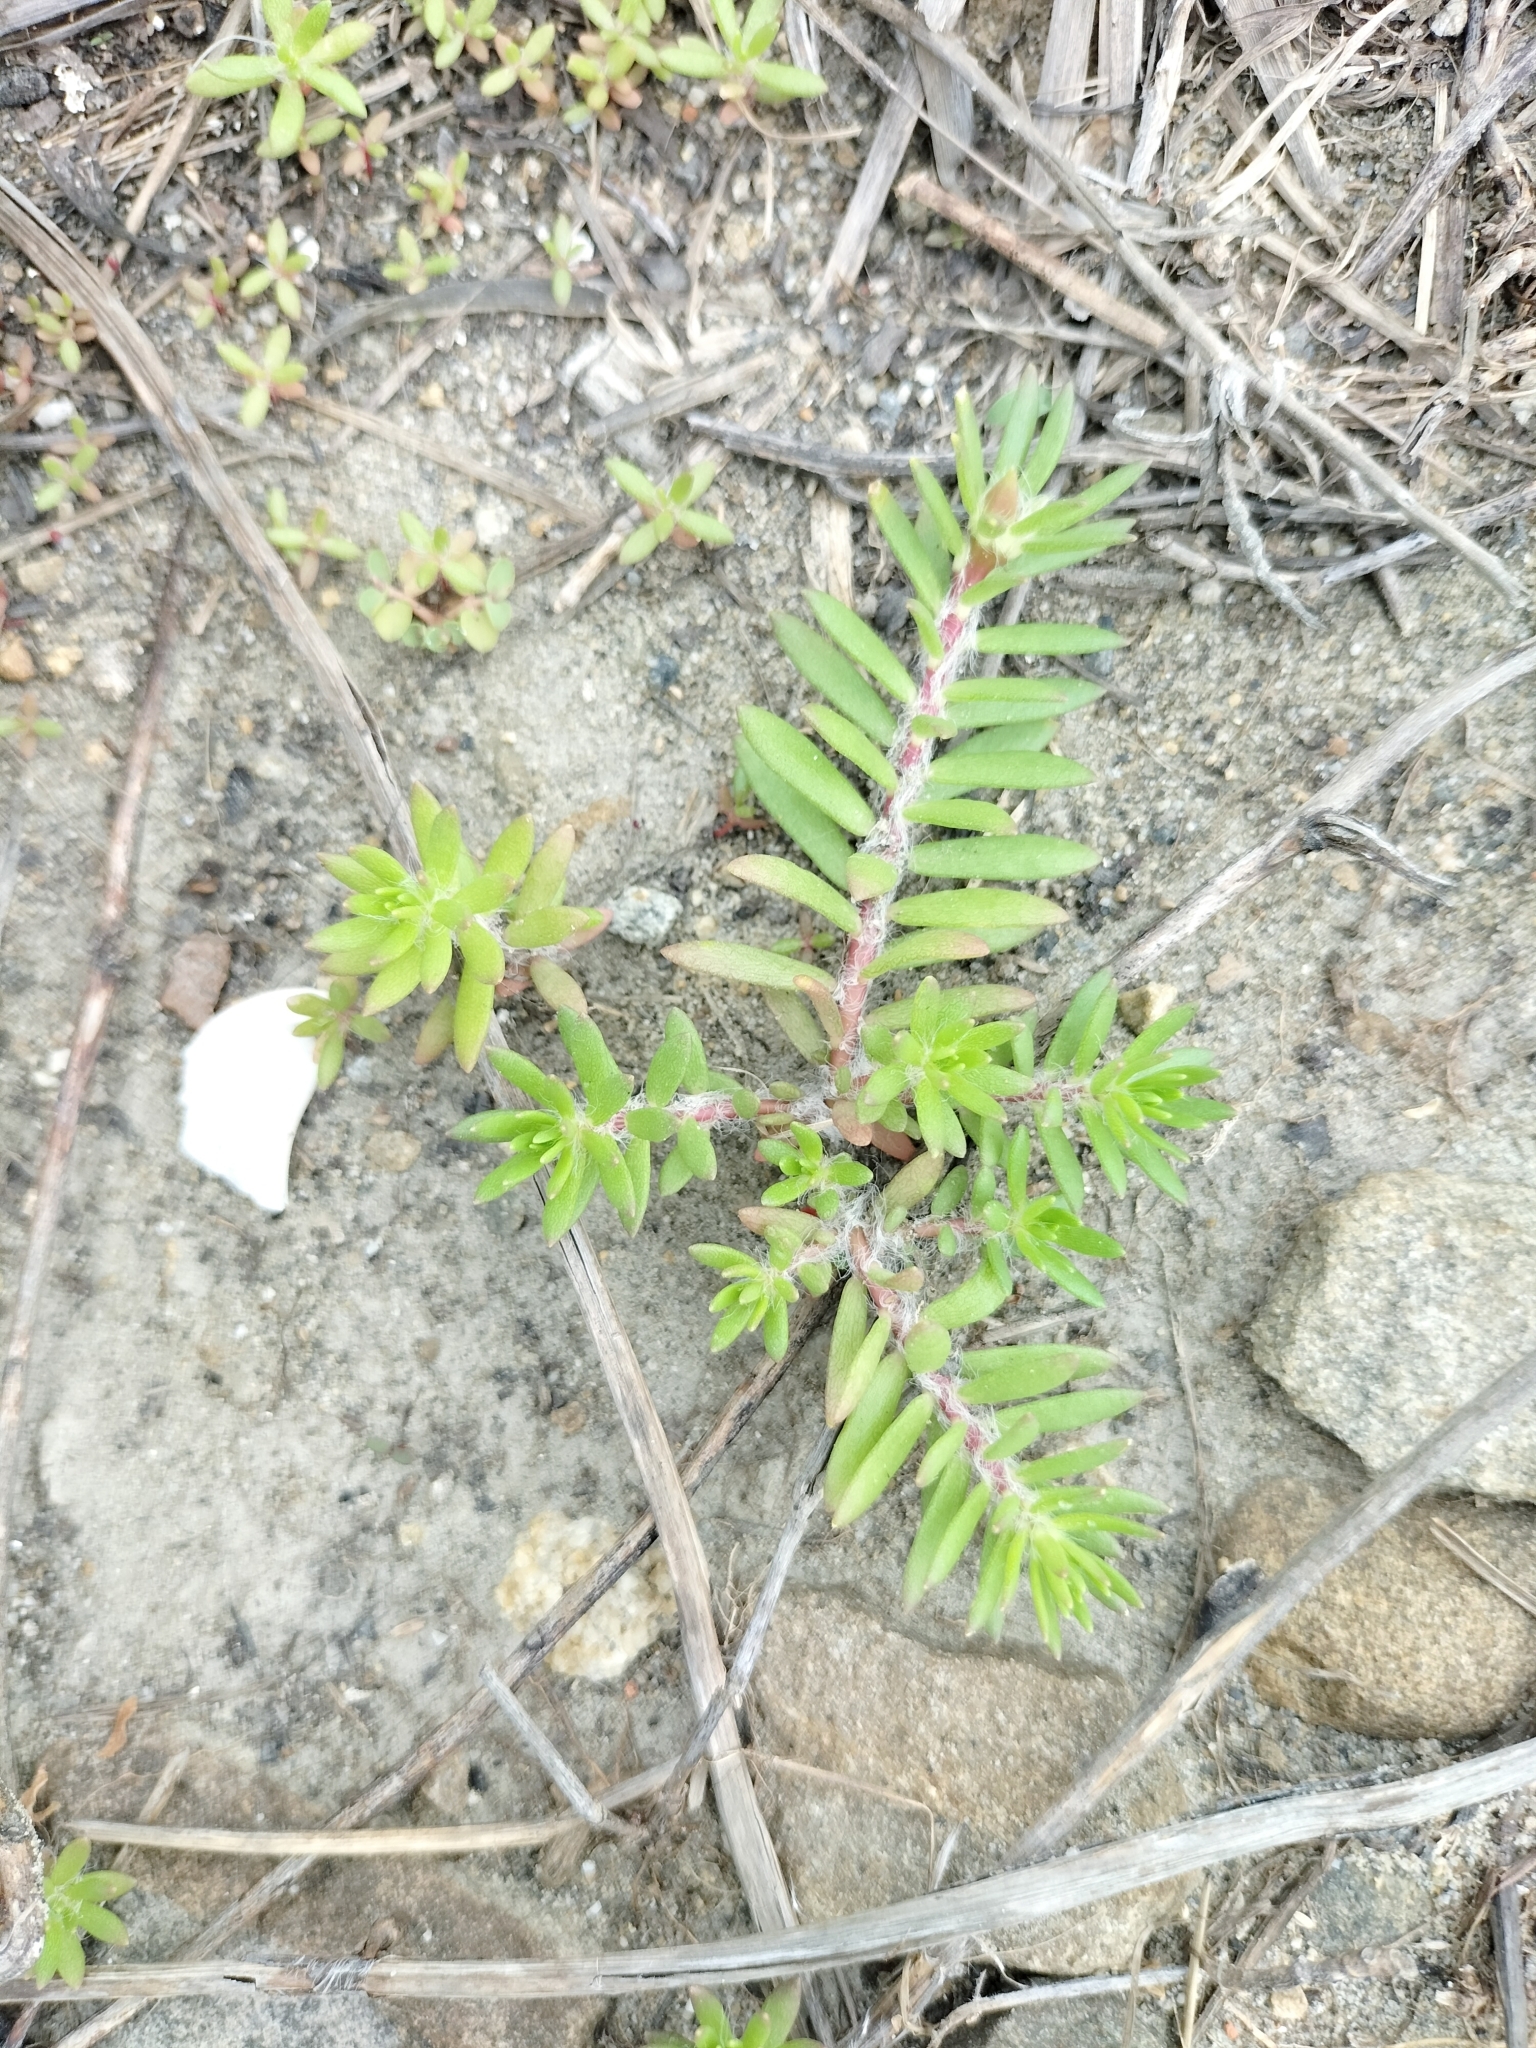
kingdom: Plantae
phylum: Tracheophyta
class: Magnoliopsida
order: Caryophyllales
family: Portulacaceae
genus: Portulaca
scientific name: Portulaca pilosa
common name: Kiss me quick
